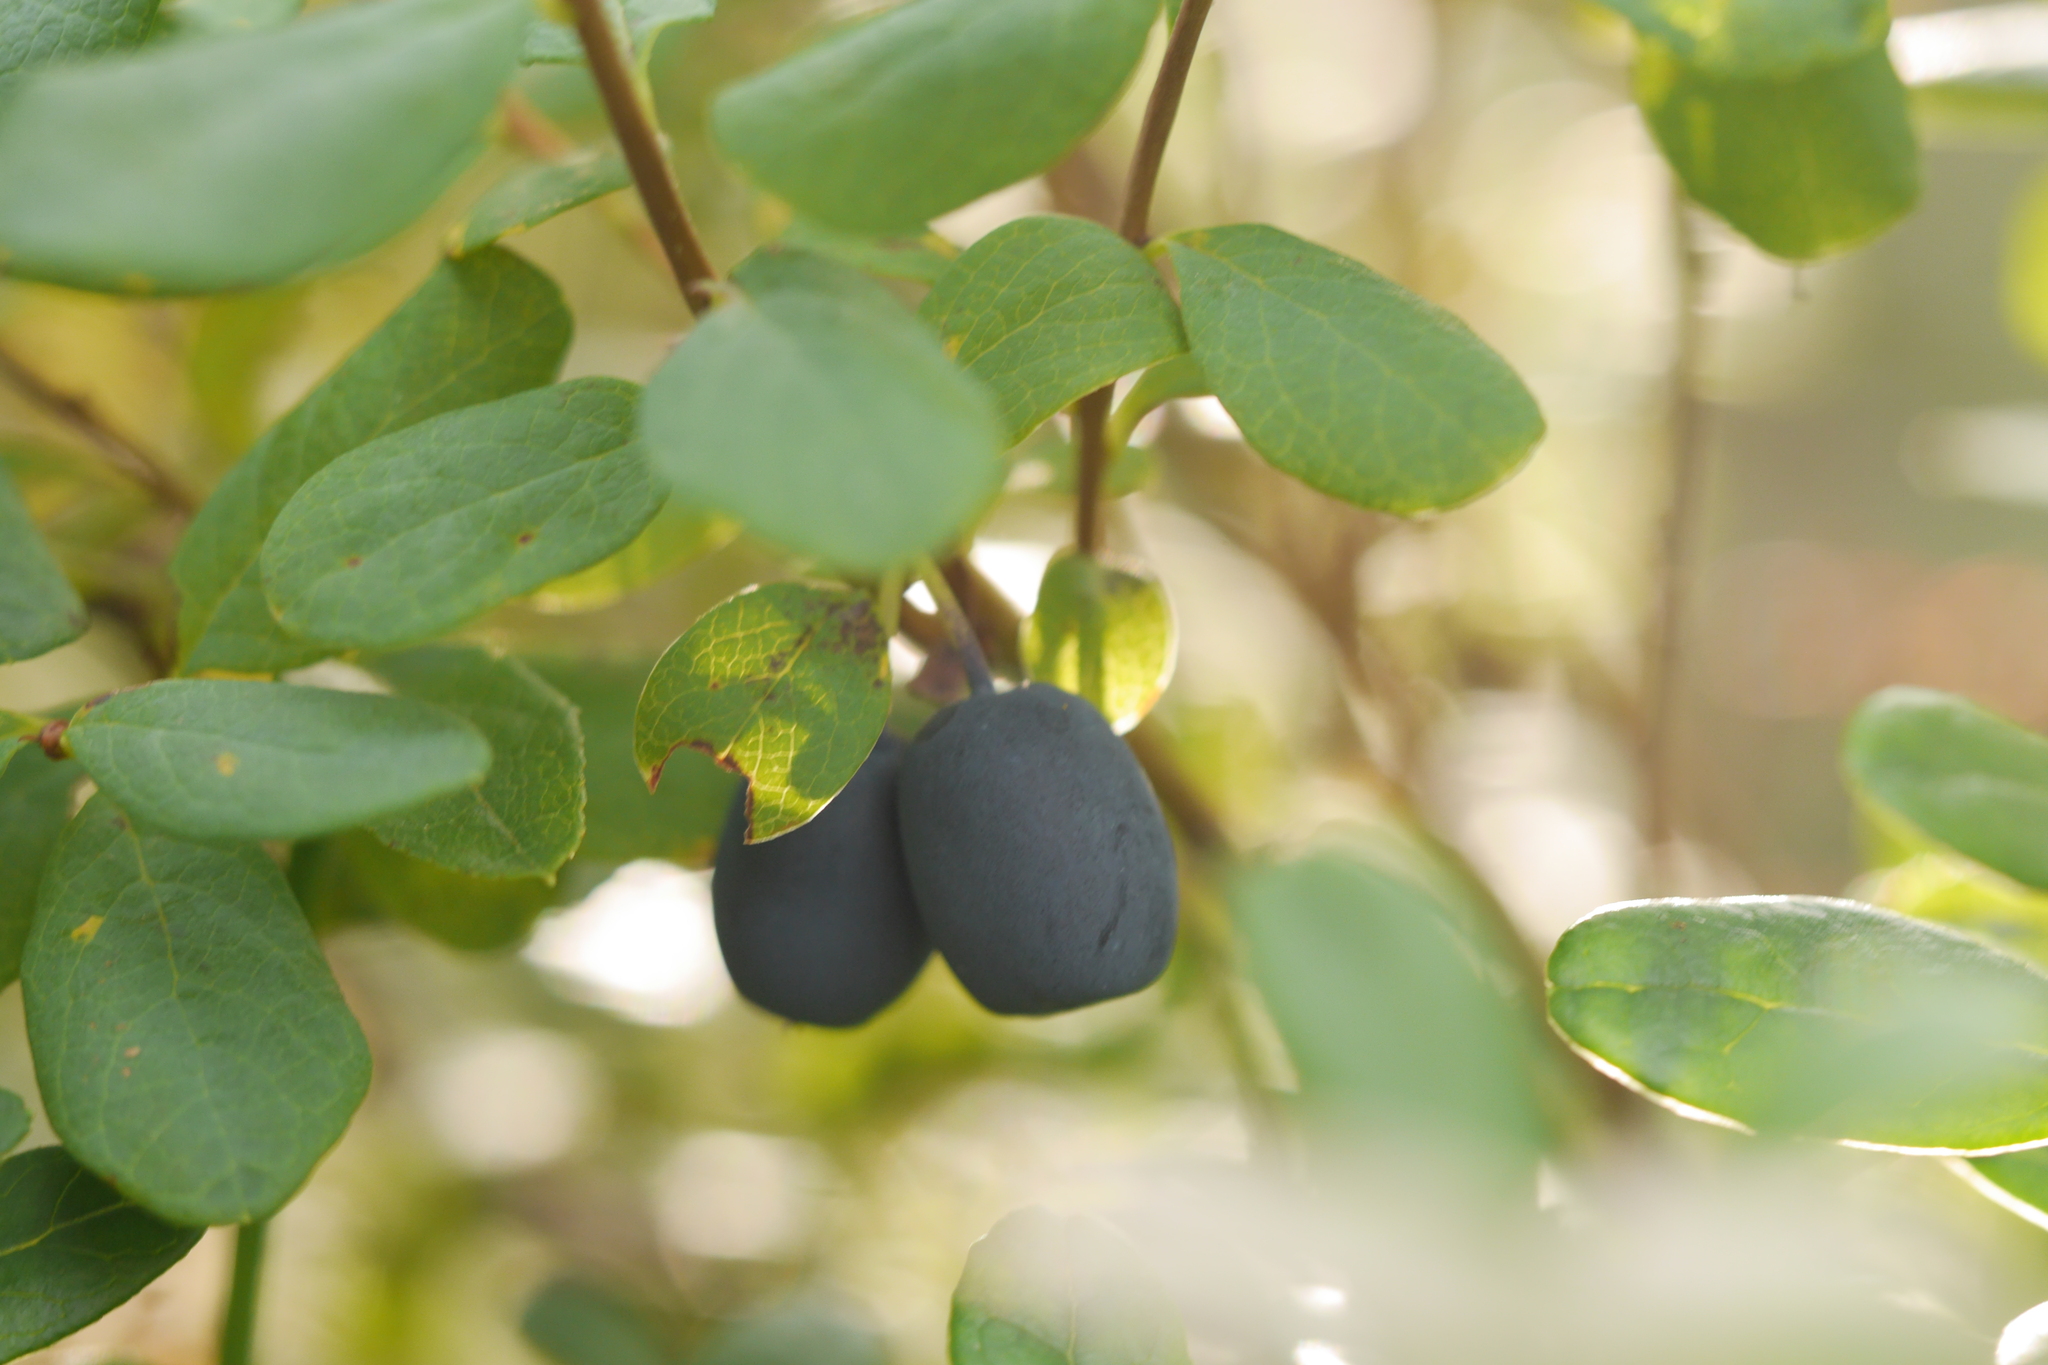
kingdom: Plantae
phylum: Tracheophyta
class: Magnoliopsida
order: Ericales
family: Ericaceae
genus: Vaccinium
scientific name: Vaccinium uliginosum
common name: Bog bilberry
